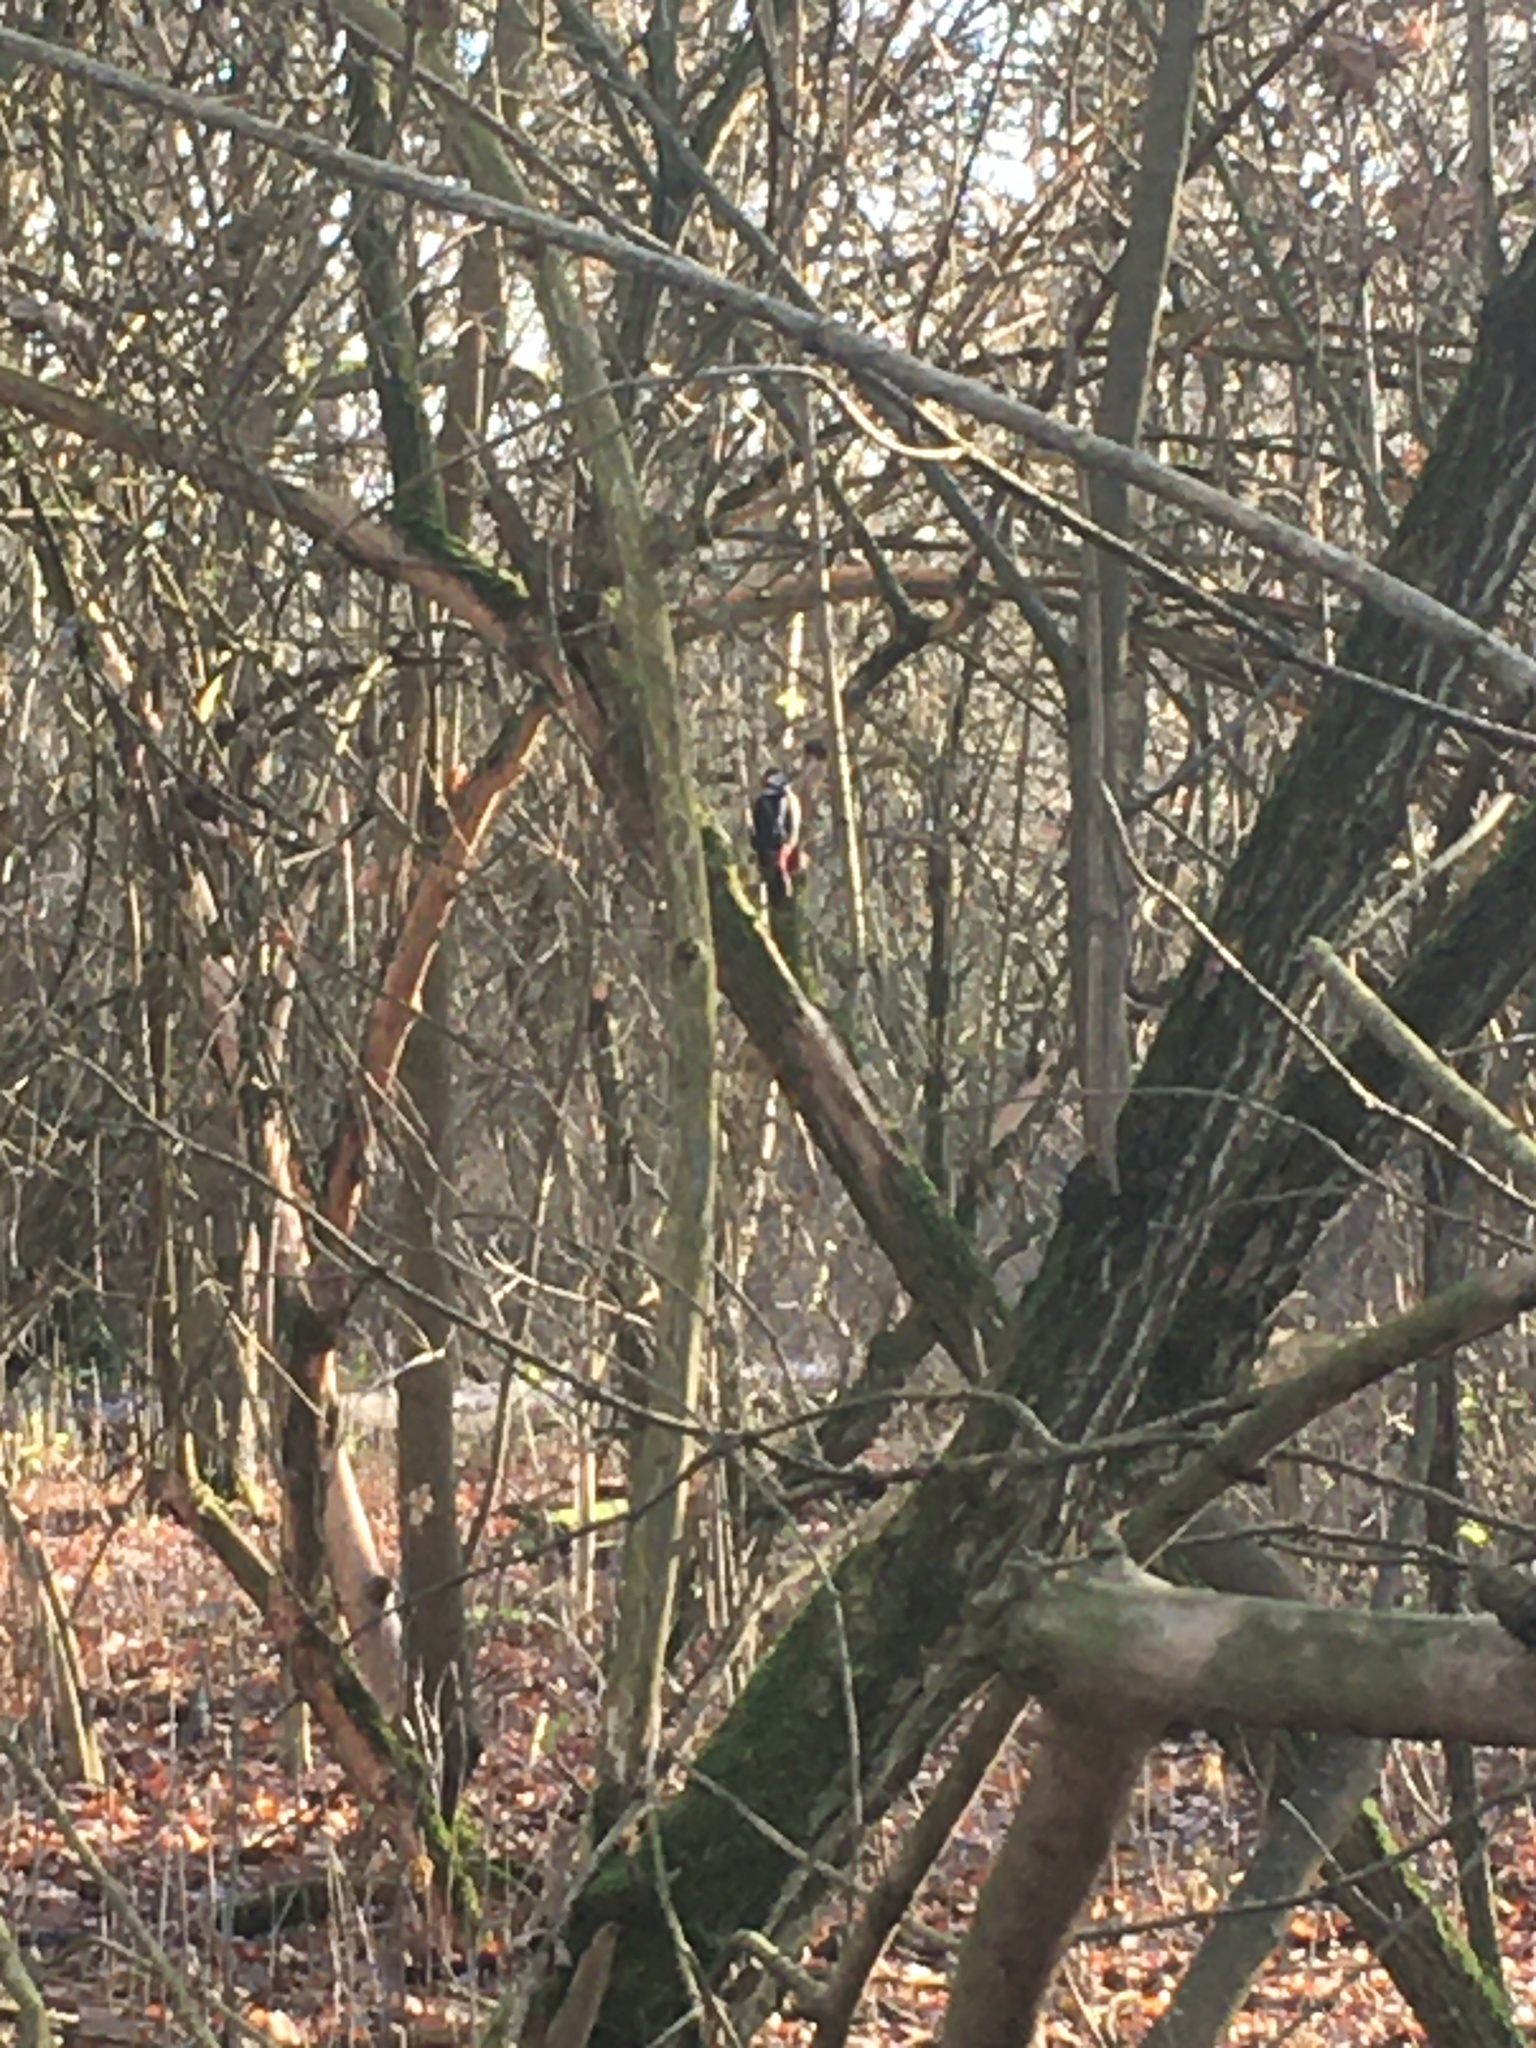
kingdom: Animalia
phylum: Chordata
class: Aves
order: Piciformes
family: Picidae
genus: Dendrocopos
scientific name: Dendrocopos major
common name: Great spotted woodpecker
